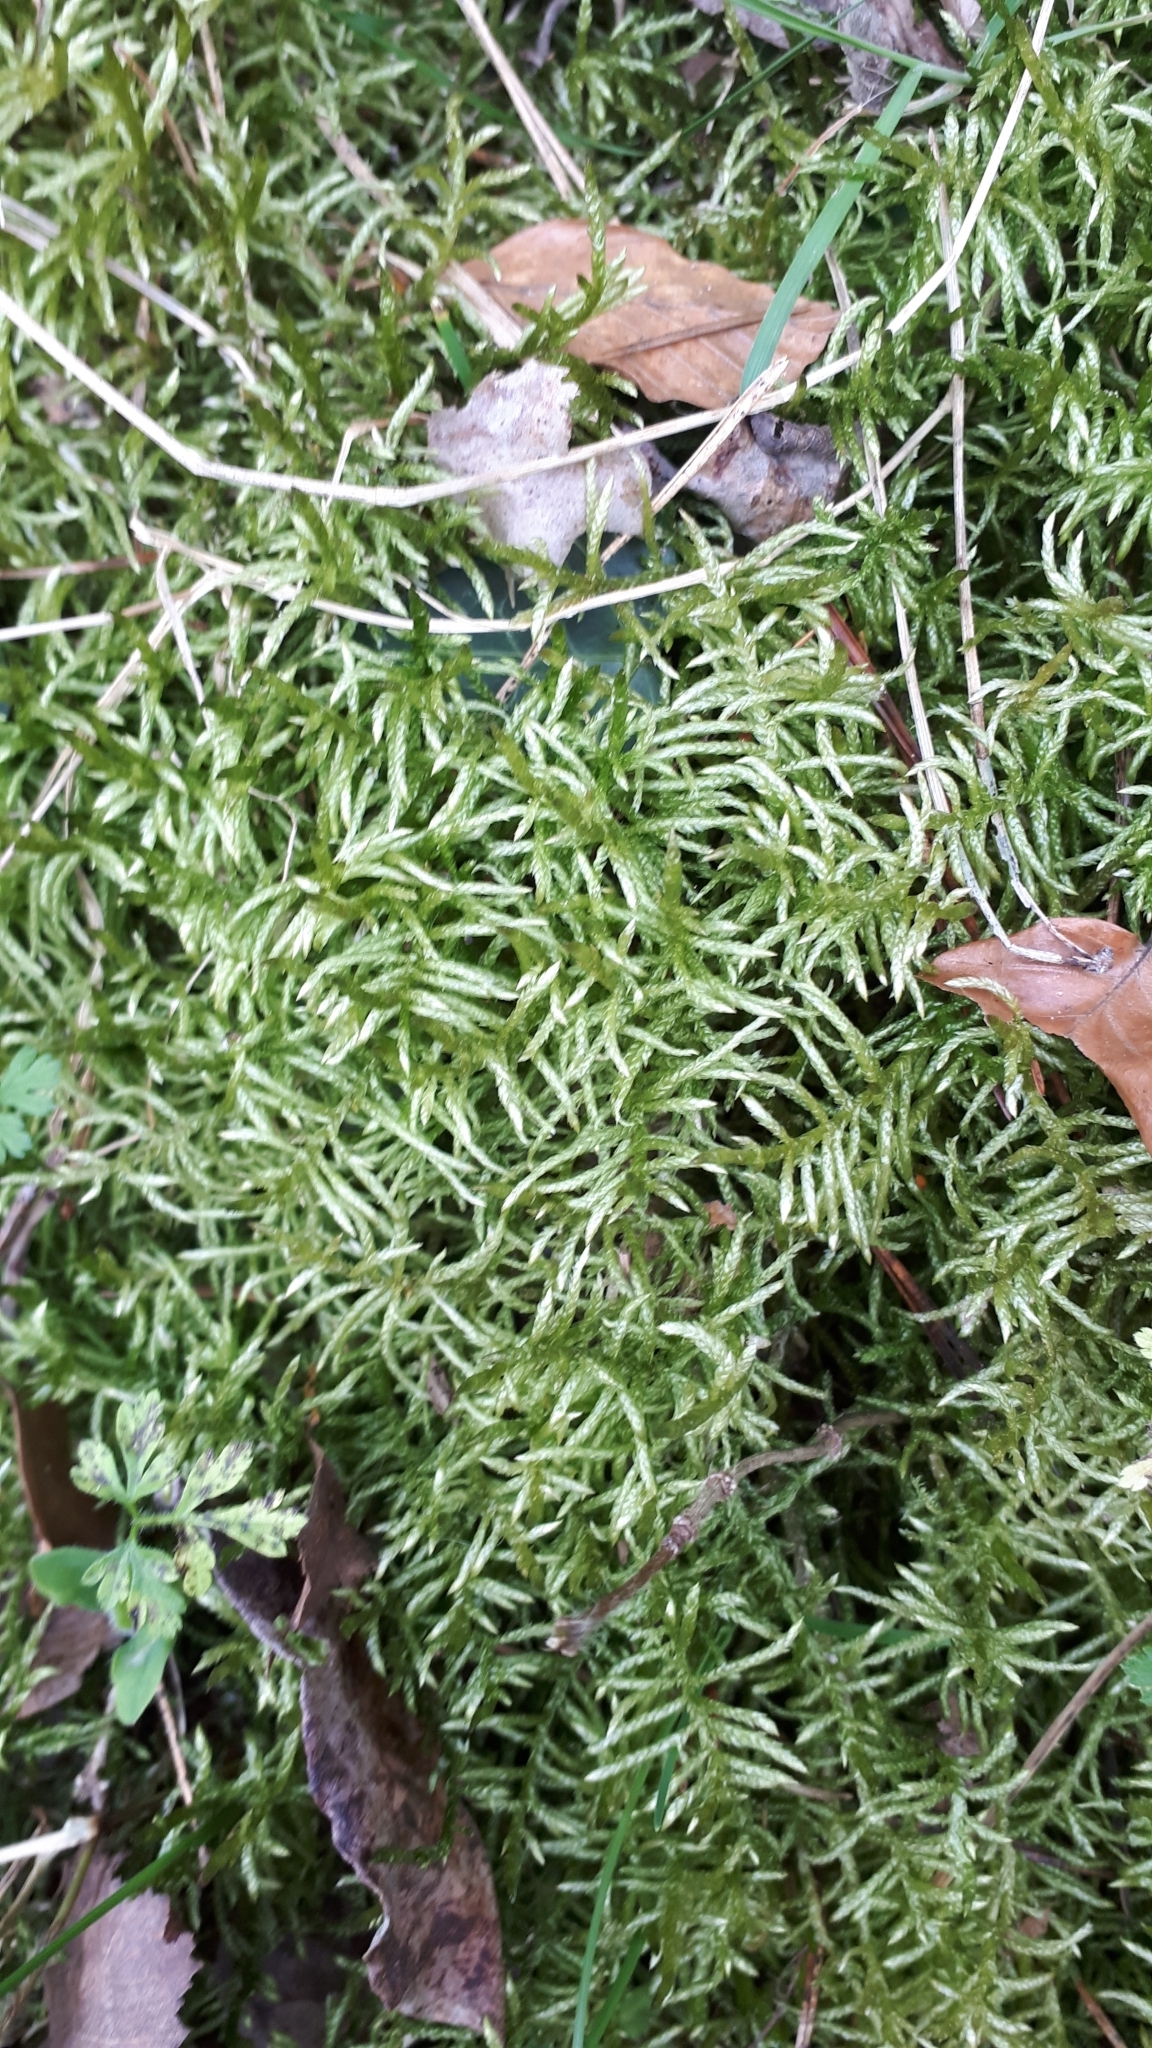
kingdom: Plantae
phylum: Bryophyta
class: Bryopsida
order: Hypnales
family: Brachytheciaceae
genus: Pseudoscleropodium
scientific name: Pseudoscleropodium purum
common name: Neat feather-moss
